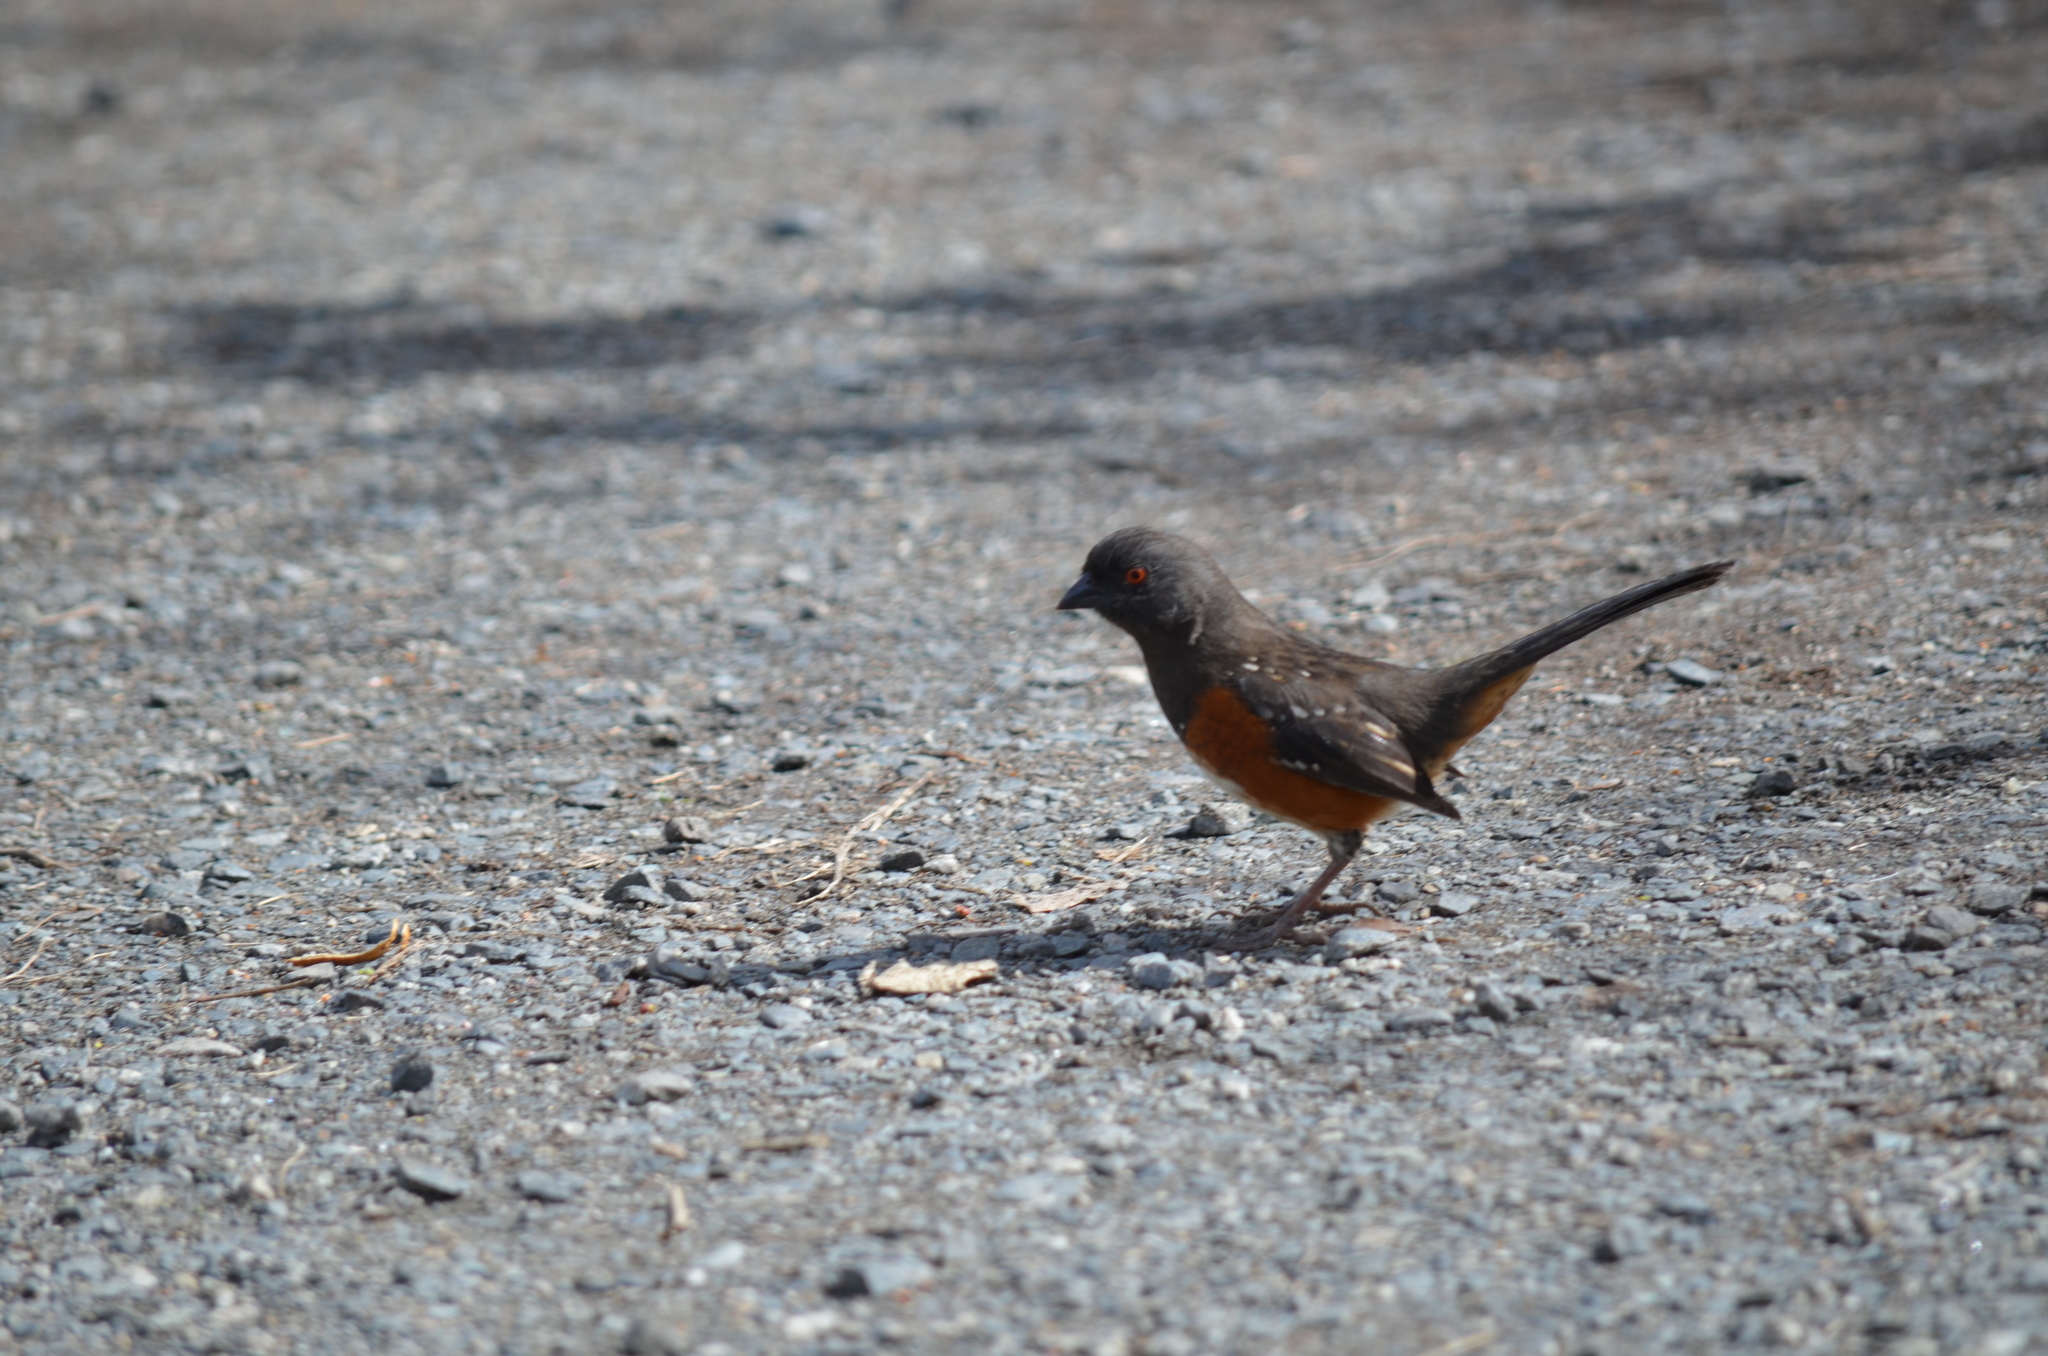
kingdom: Animalia
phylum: Chordata
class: Aves
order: Passeriformes
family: Passerellidae
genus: Pipilo
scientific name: Pipilo maculatus
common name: Spotted towhee
